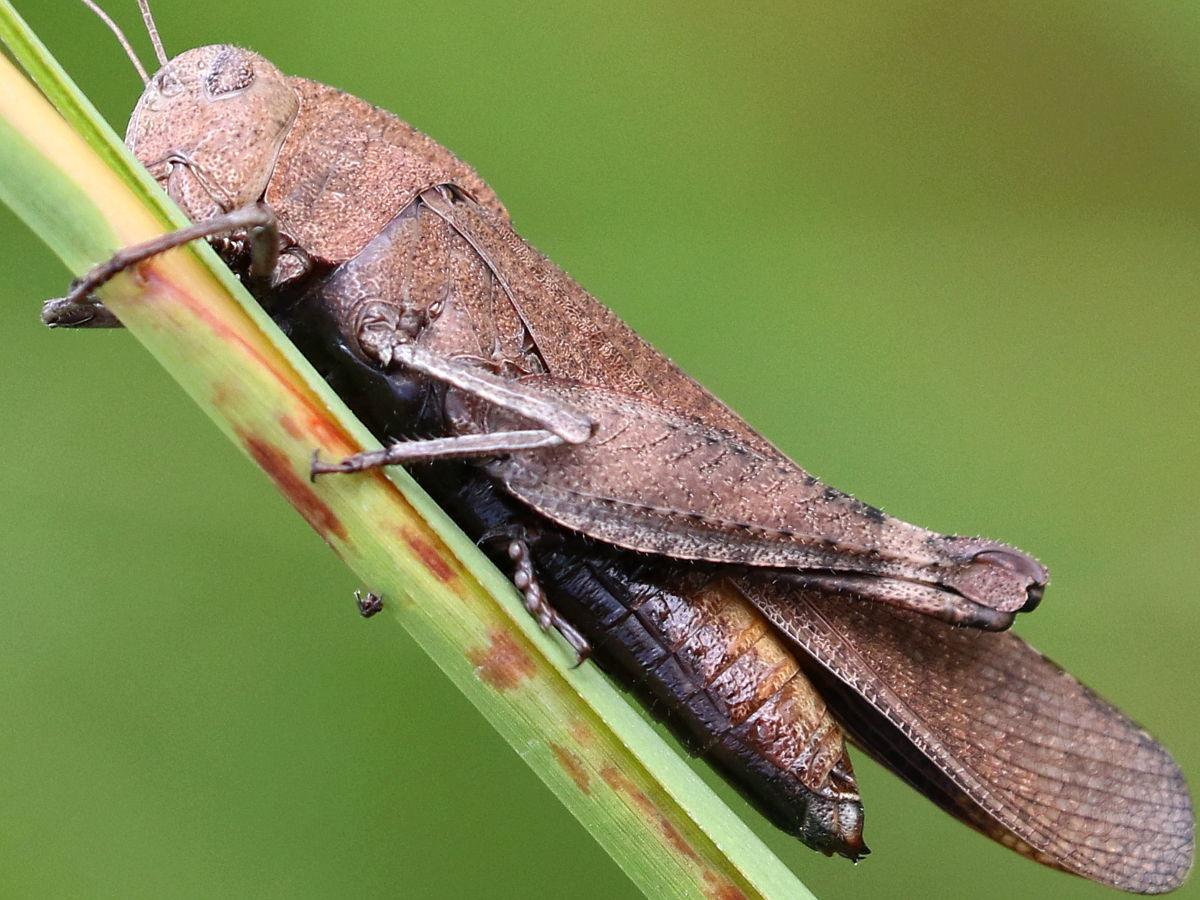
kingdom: Animalia
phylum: Arthropoda
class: Insecta
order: Orthoptera
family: Acrididae
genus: Arphia
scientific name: Arphia xanthoptera
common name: Autumn yellow-winged grasshopper
